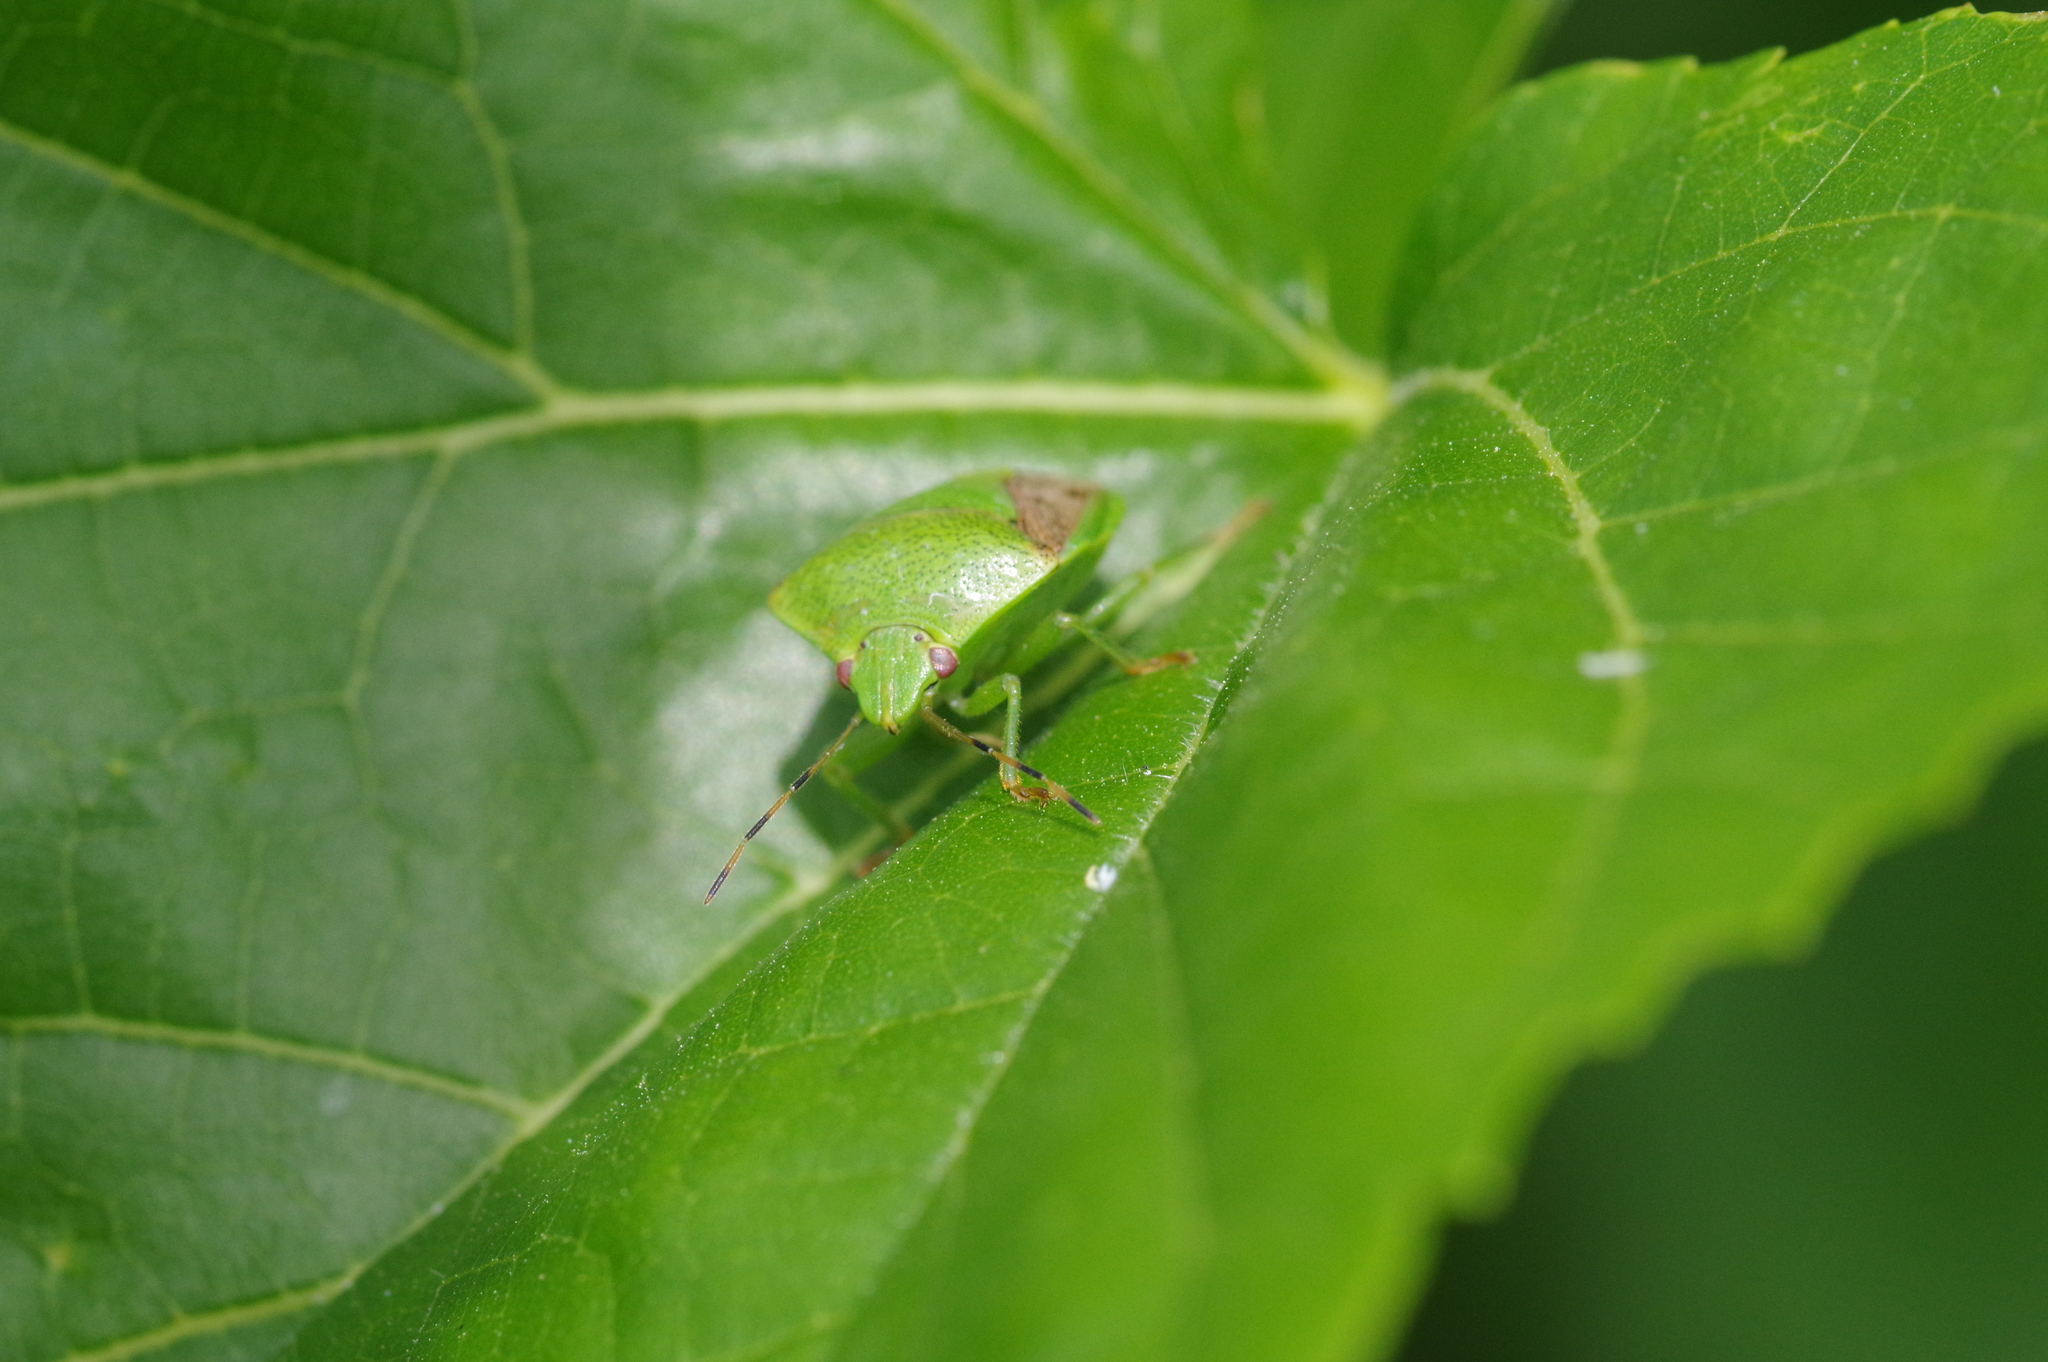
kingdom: Animalia
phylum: Arthropoda
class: Insecta
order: Hemiptera
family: Pentatomidae
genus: Plautia
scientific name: Plautia stali
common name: Stink bug
